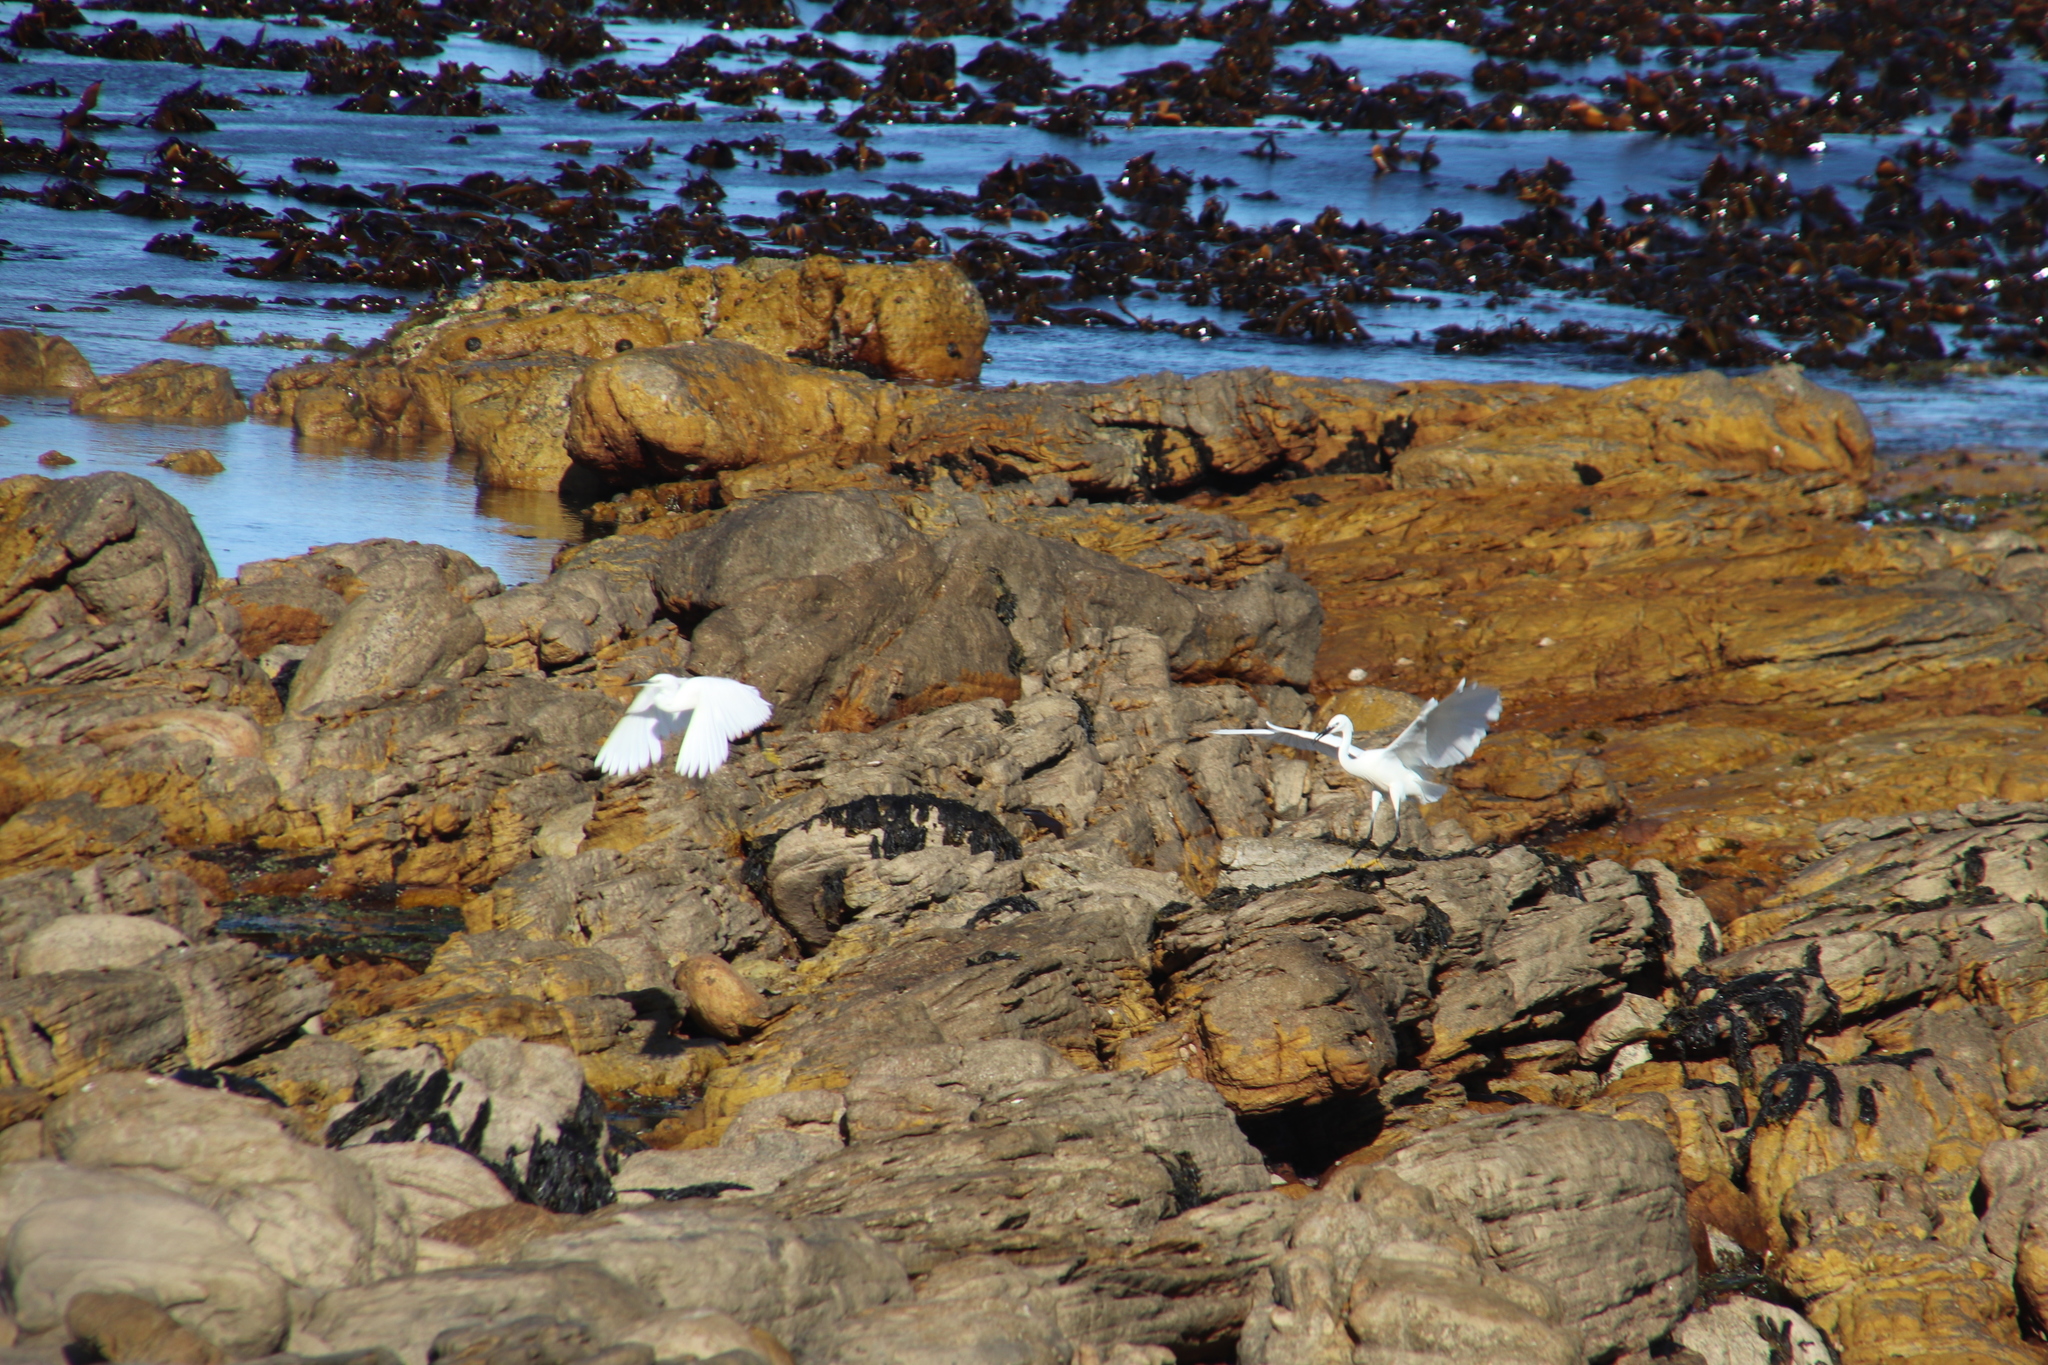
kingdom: Animalia
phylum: Chordata
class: Aves
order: Pelecaniformes
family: Ardeidae
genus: Egretta
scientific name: Egretta garzetta
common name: Little egret
